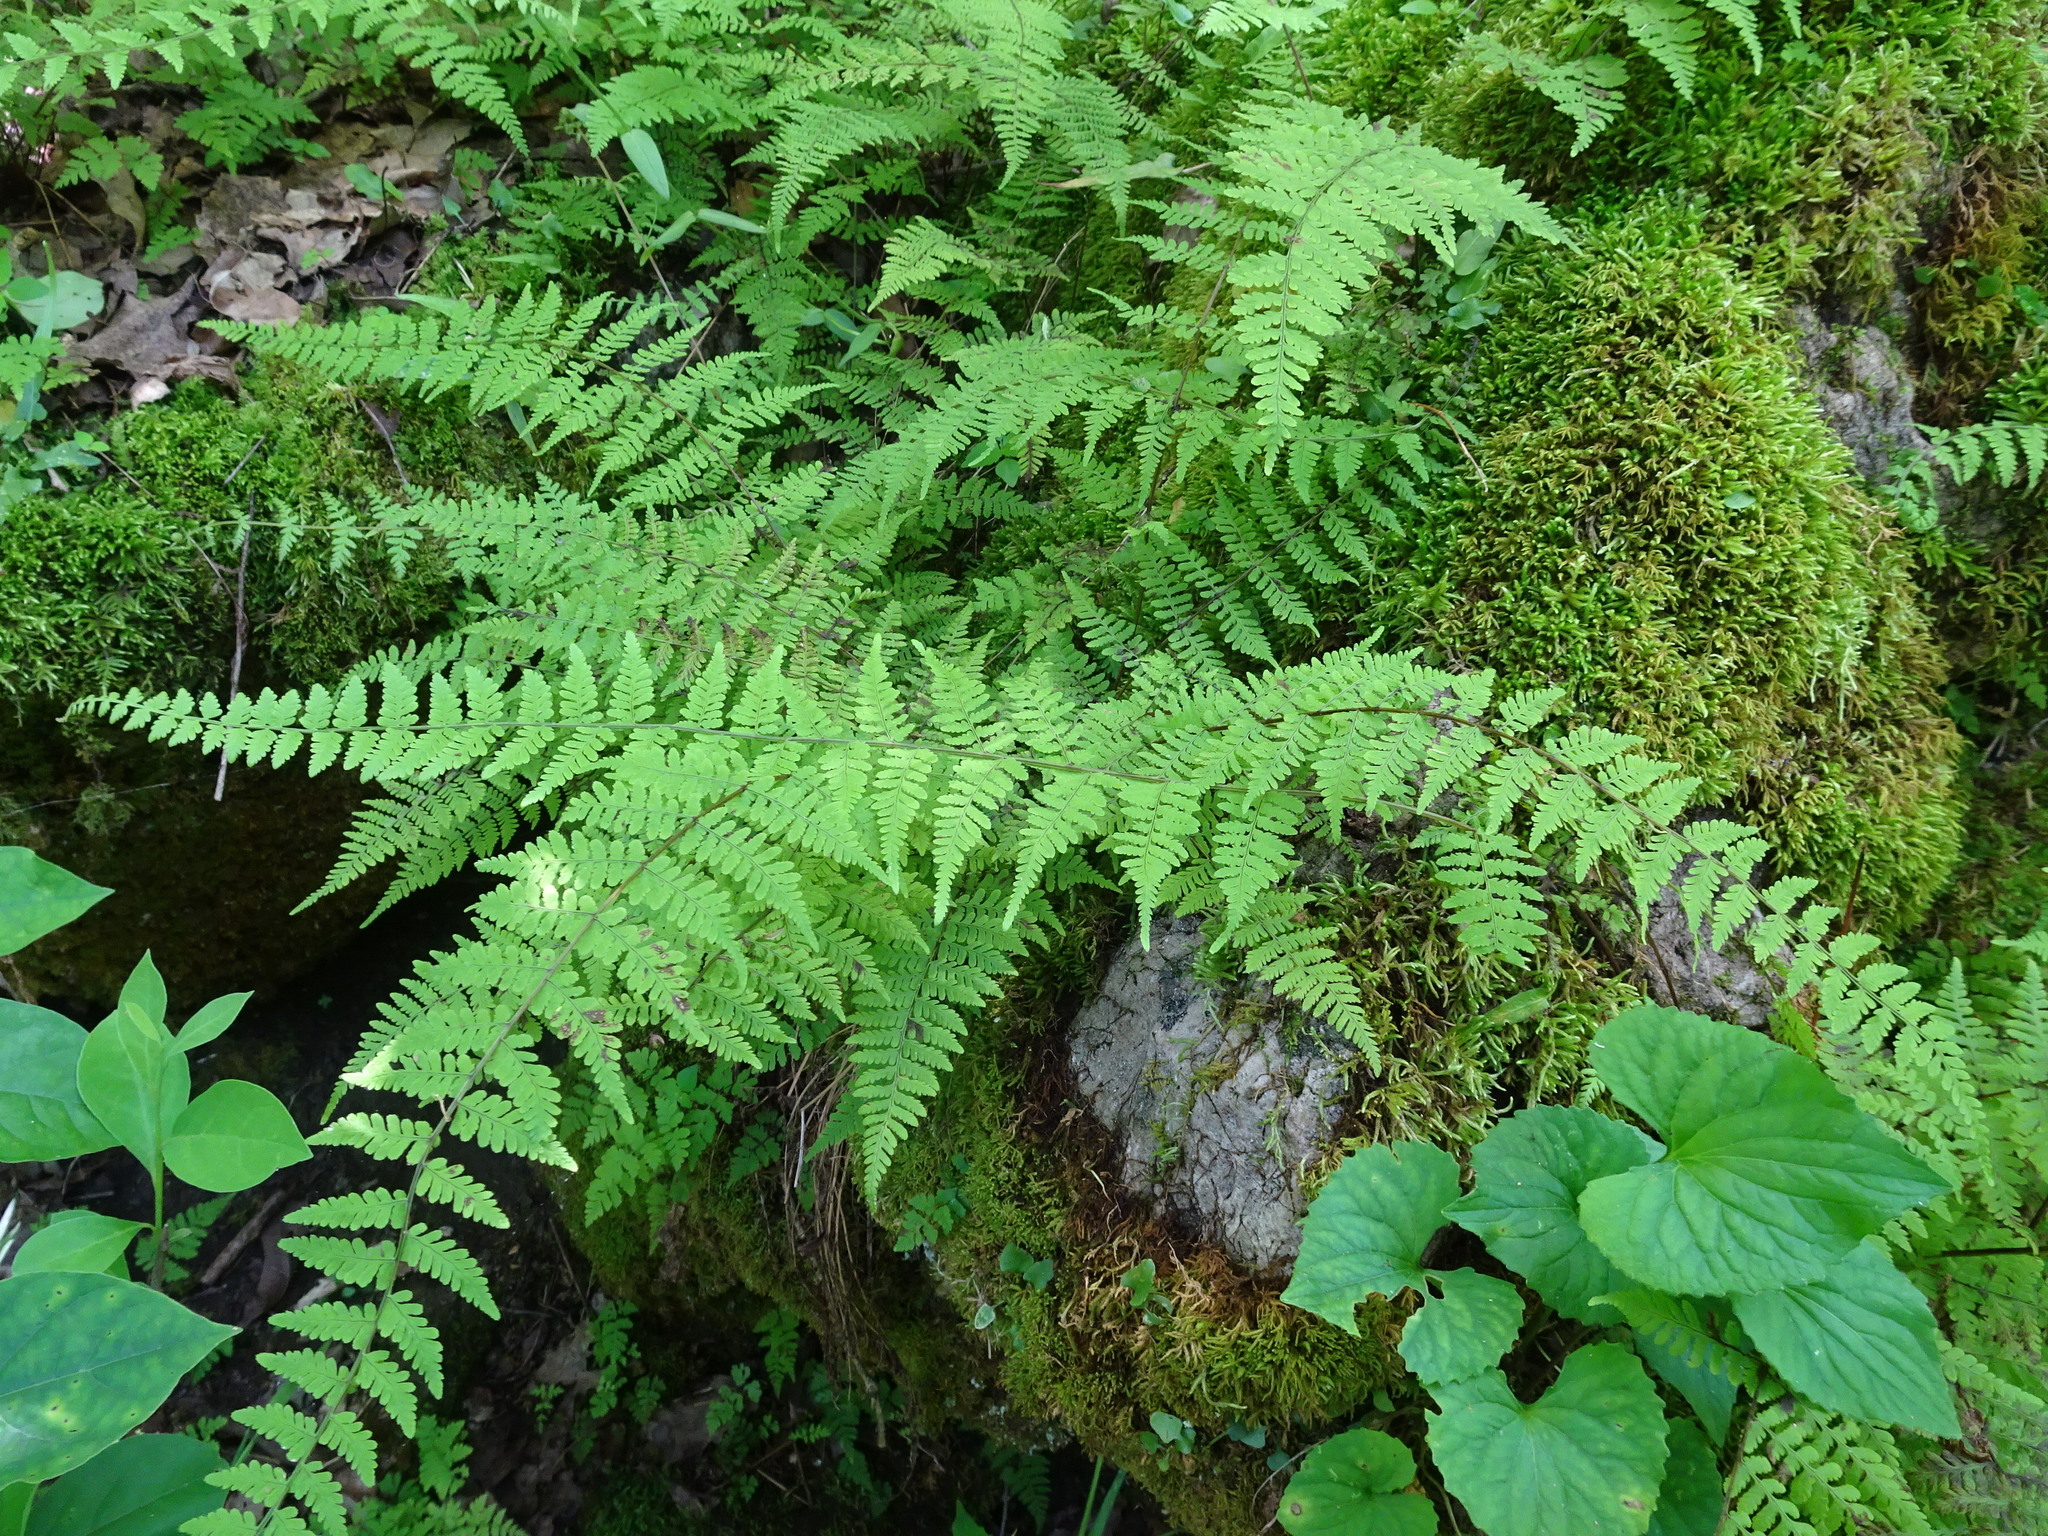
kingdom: Plantae
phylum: Tracheophyta
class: Polypodiopsida
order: Polypodiales
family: Cystopteridaceae
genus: Cystopteris
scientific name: Cystopteris bulbifera
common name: Bulblet bladder fern
